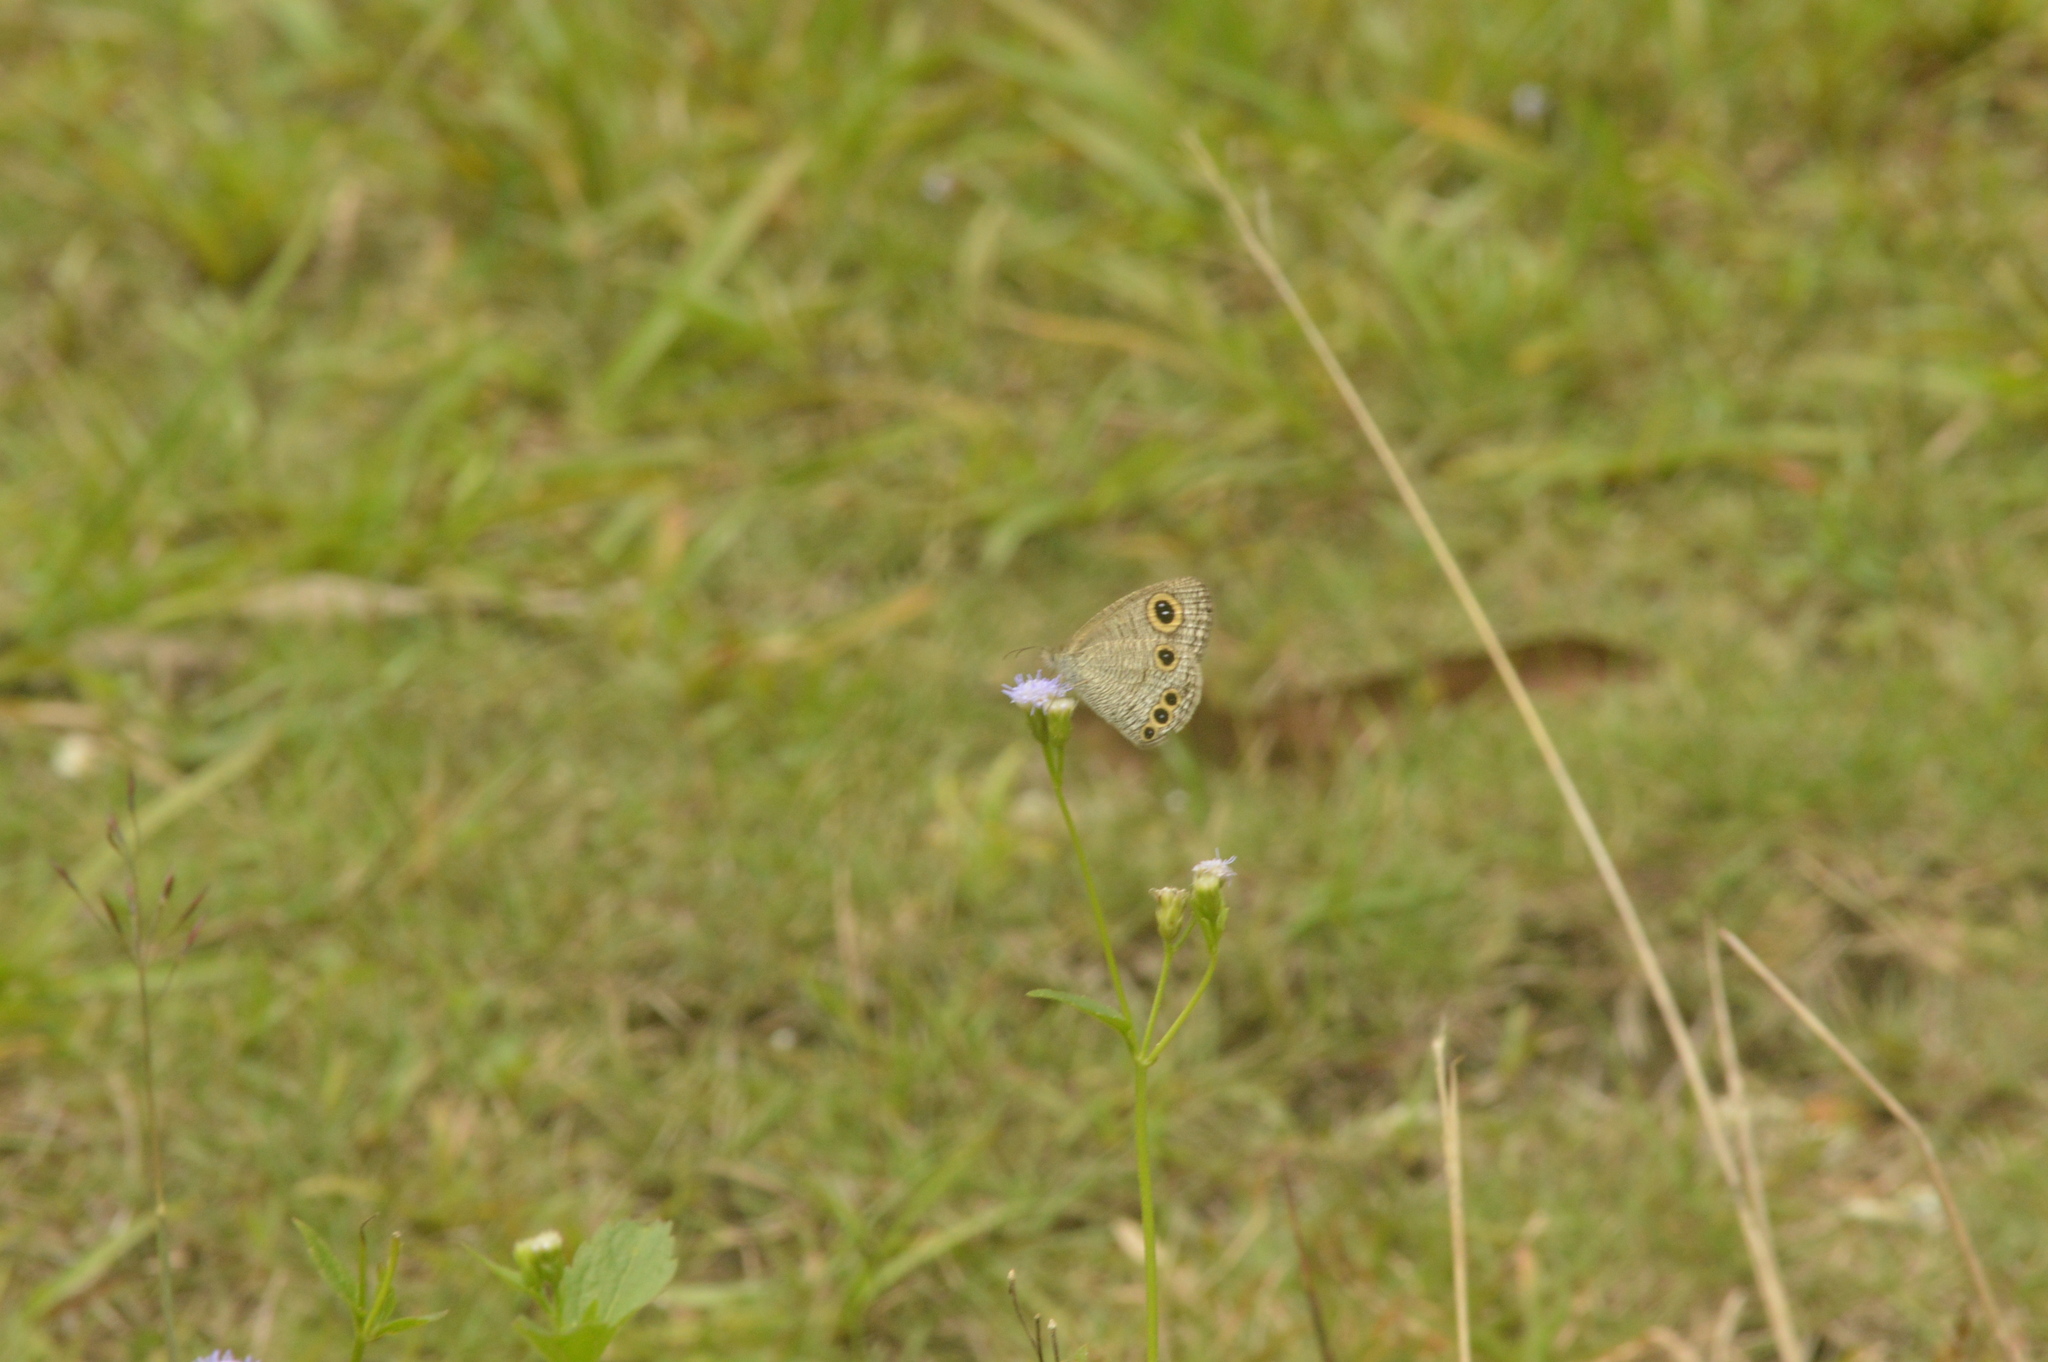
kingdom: Animalia
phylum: Arthropoda
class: Insecta
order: Lepidoptera
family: Nymphalidae
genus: Ypthima
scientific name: Ypthima huebneri
